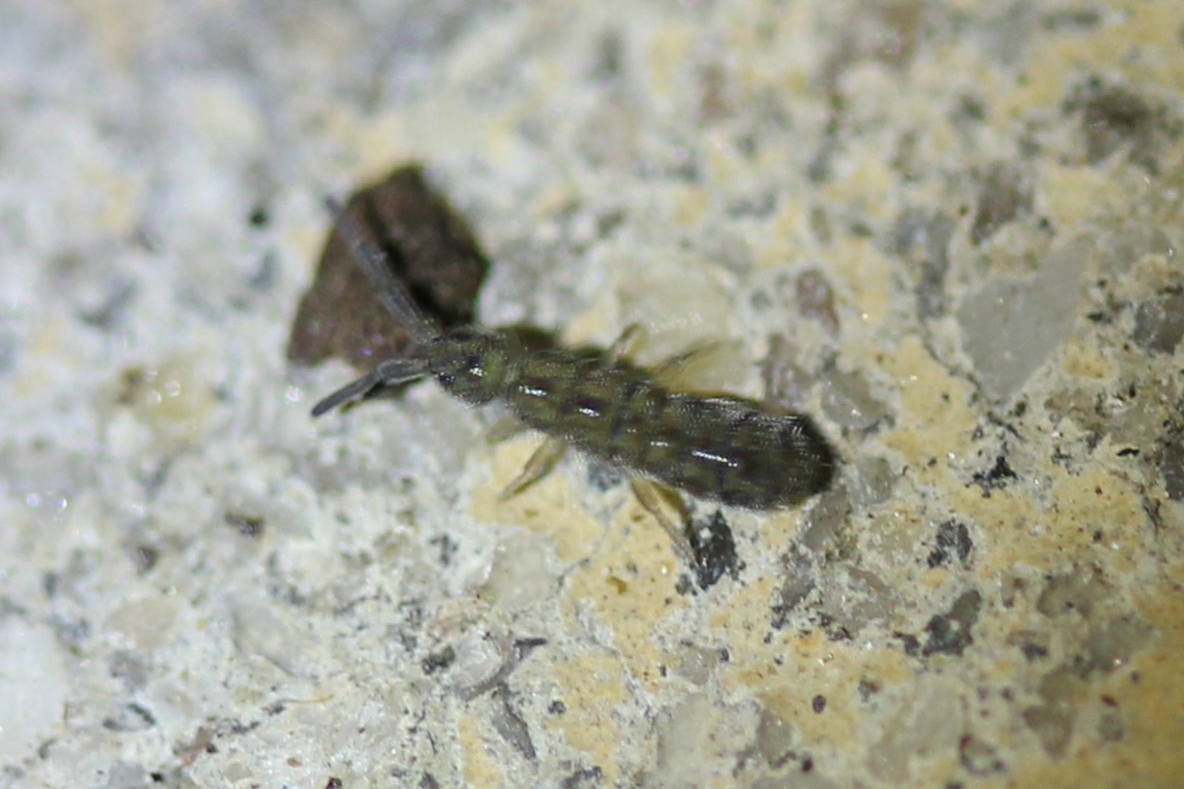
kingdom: Animalia
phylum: Arthropoda
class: Collembola
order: Entomobryomorpha
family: Isotomidae
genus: Isotoma
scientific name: Isotoma delta
